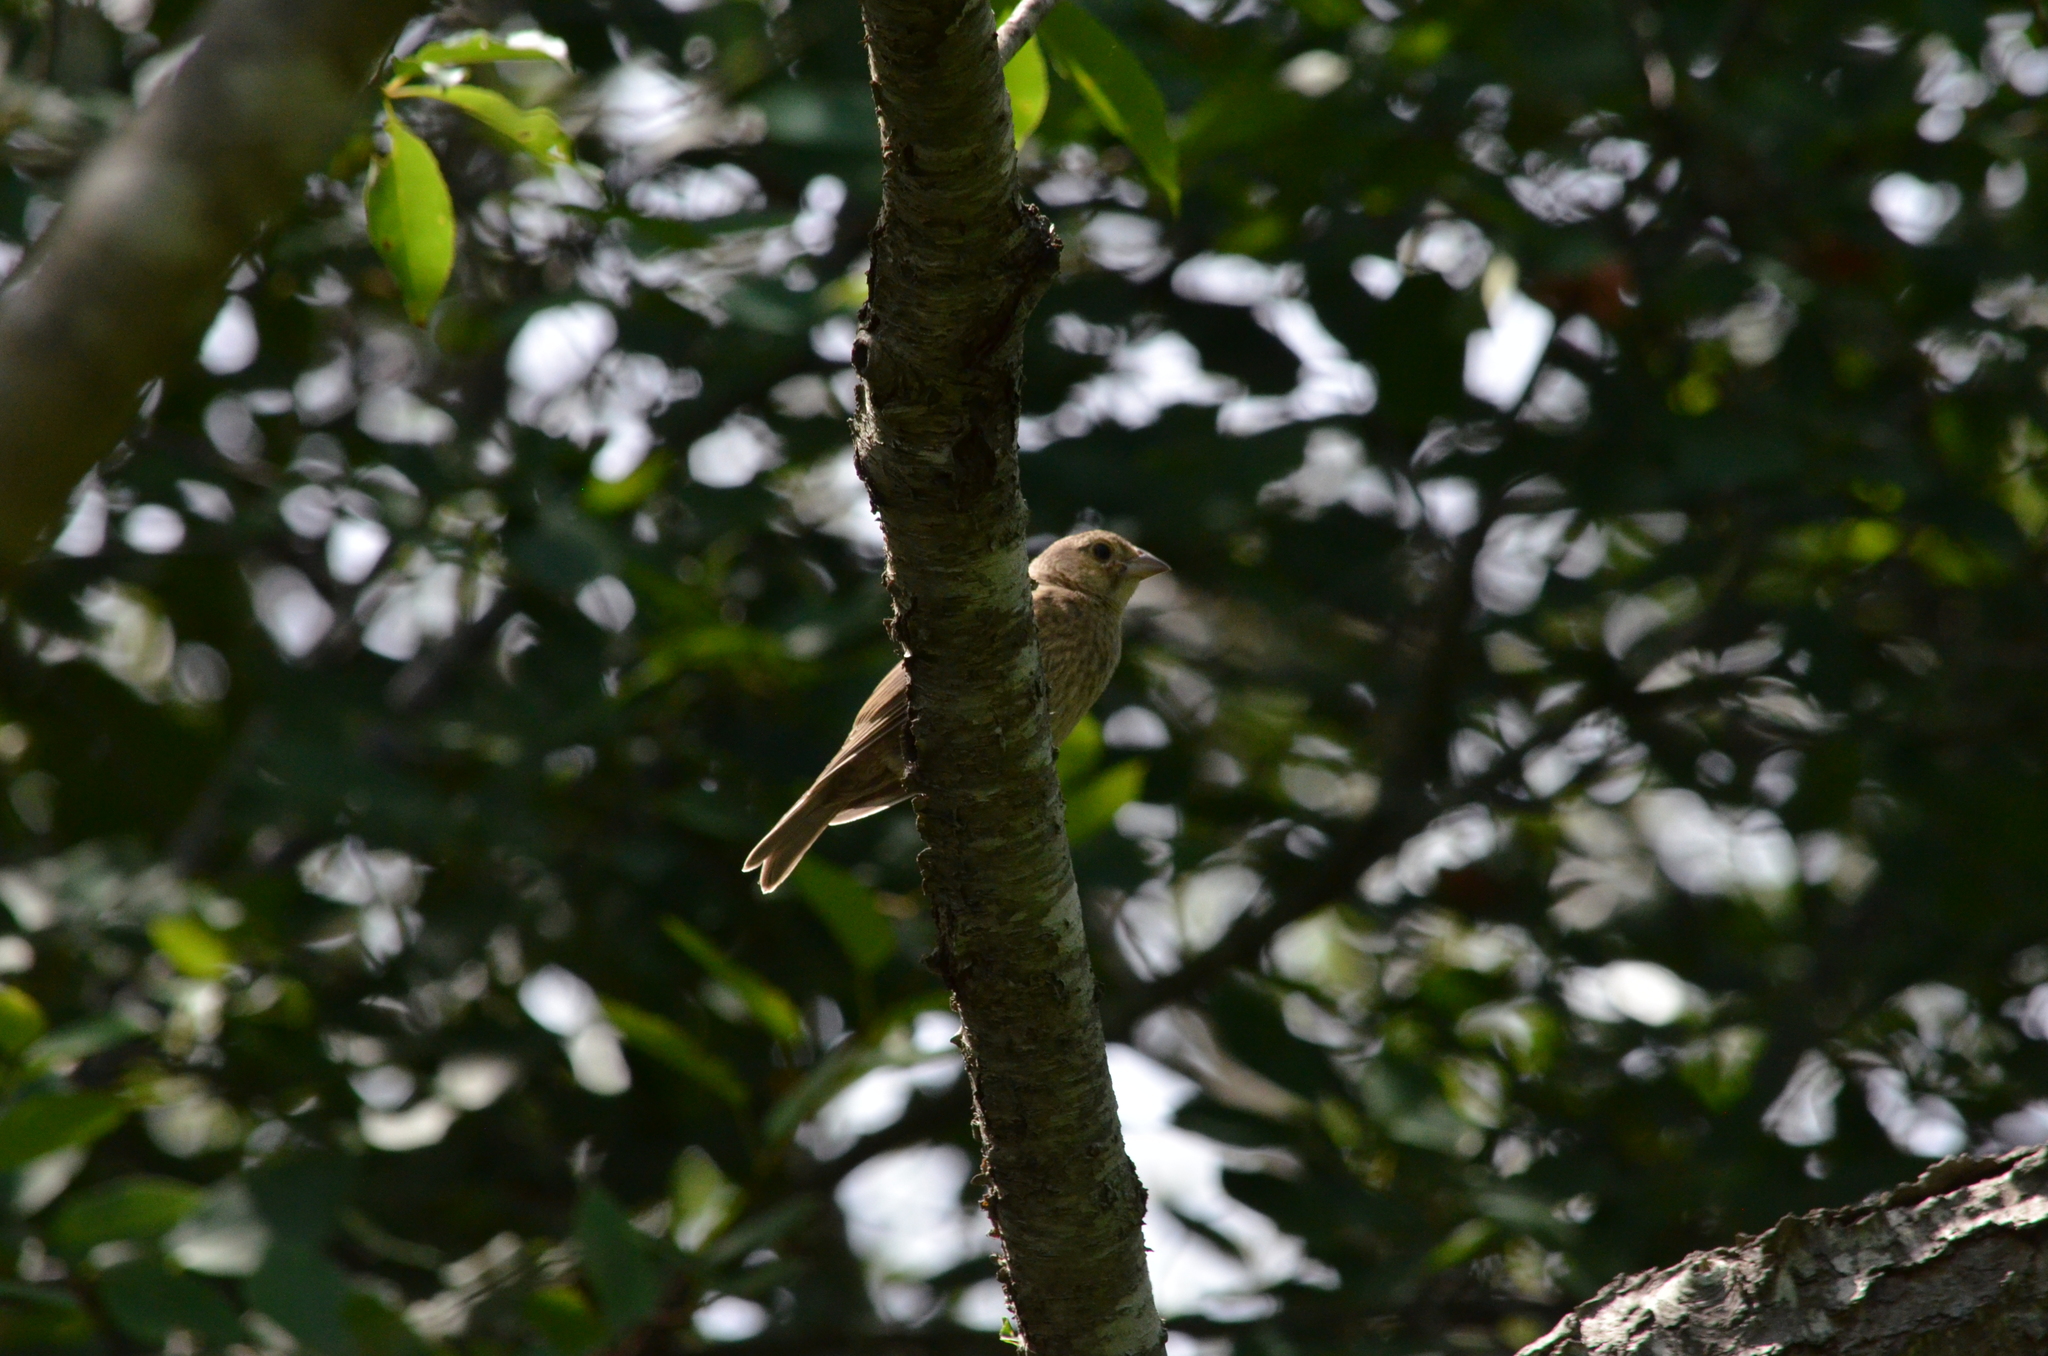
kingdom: Animalia
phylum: Chordata
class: Aves
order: Passeriformes
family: Icteridae
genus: Molothrus
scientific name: Molothrus ater
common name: Brown-headed cowbird
